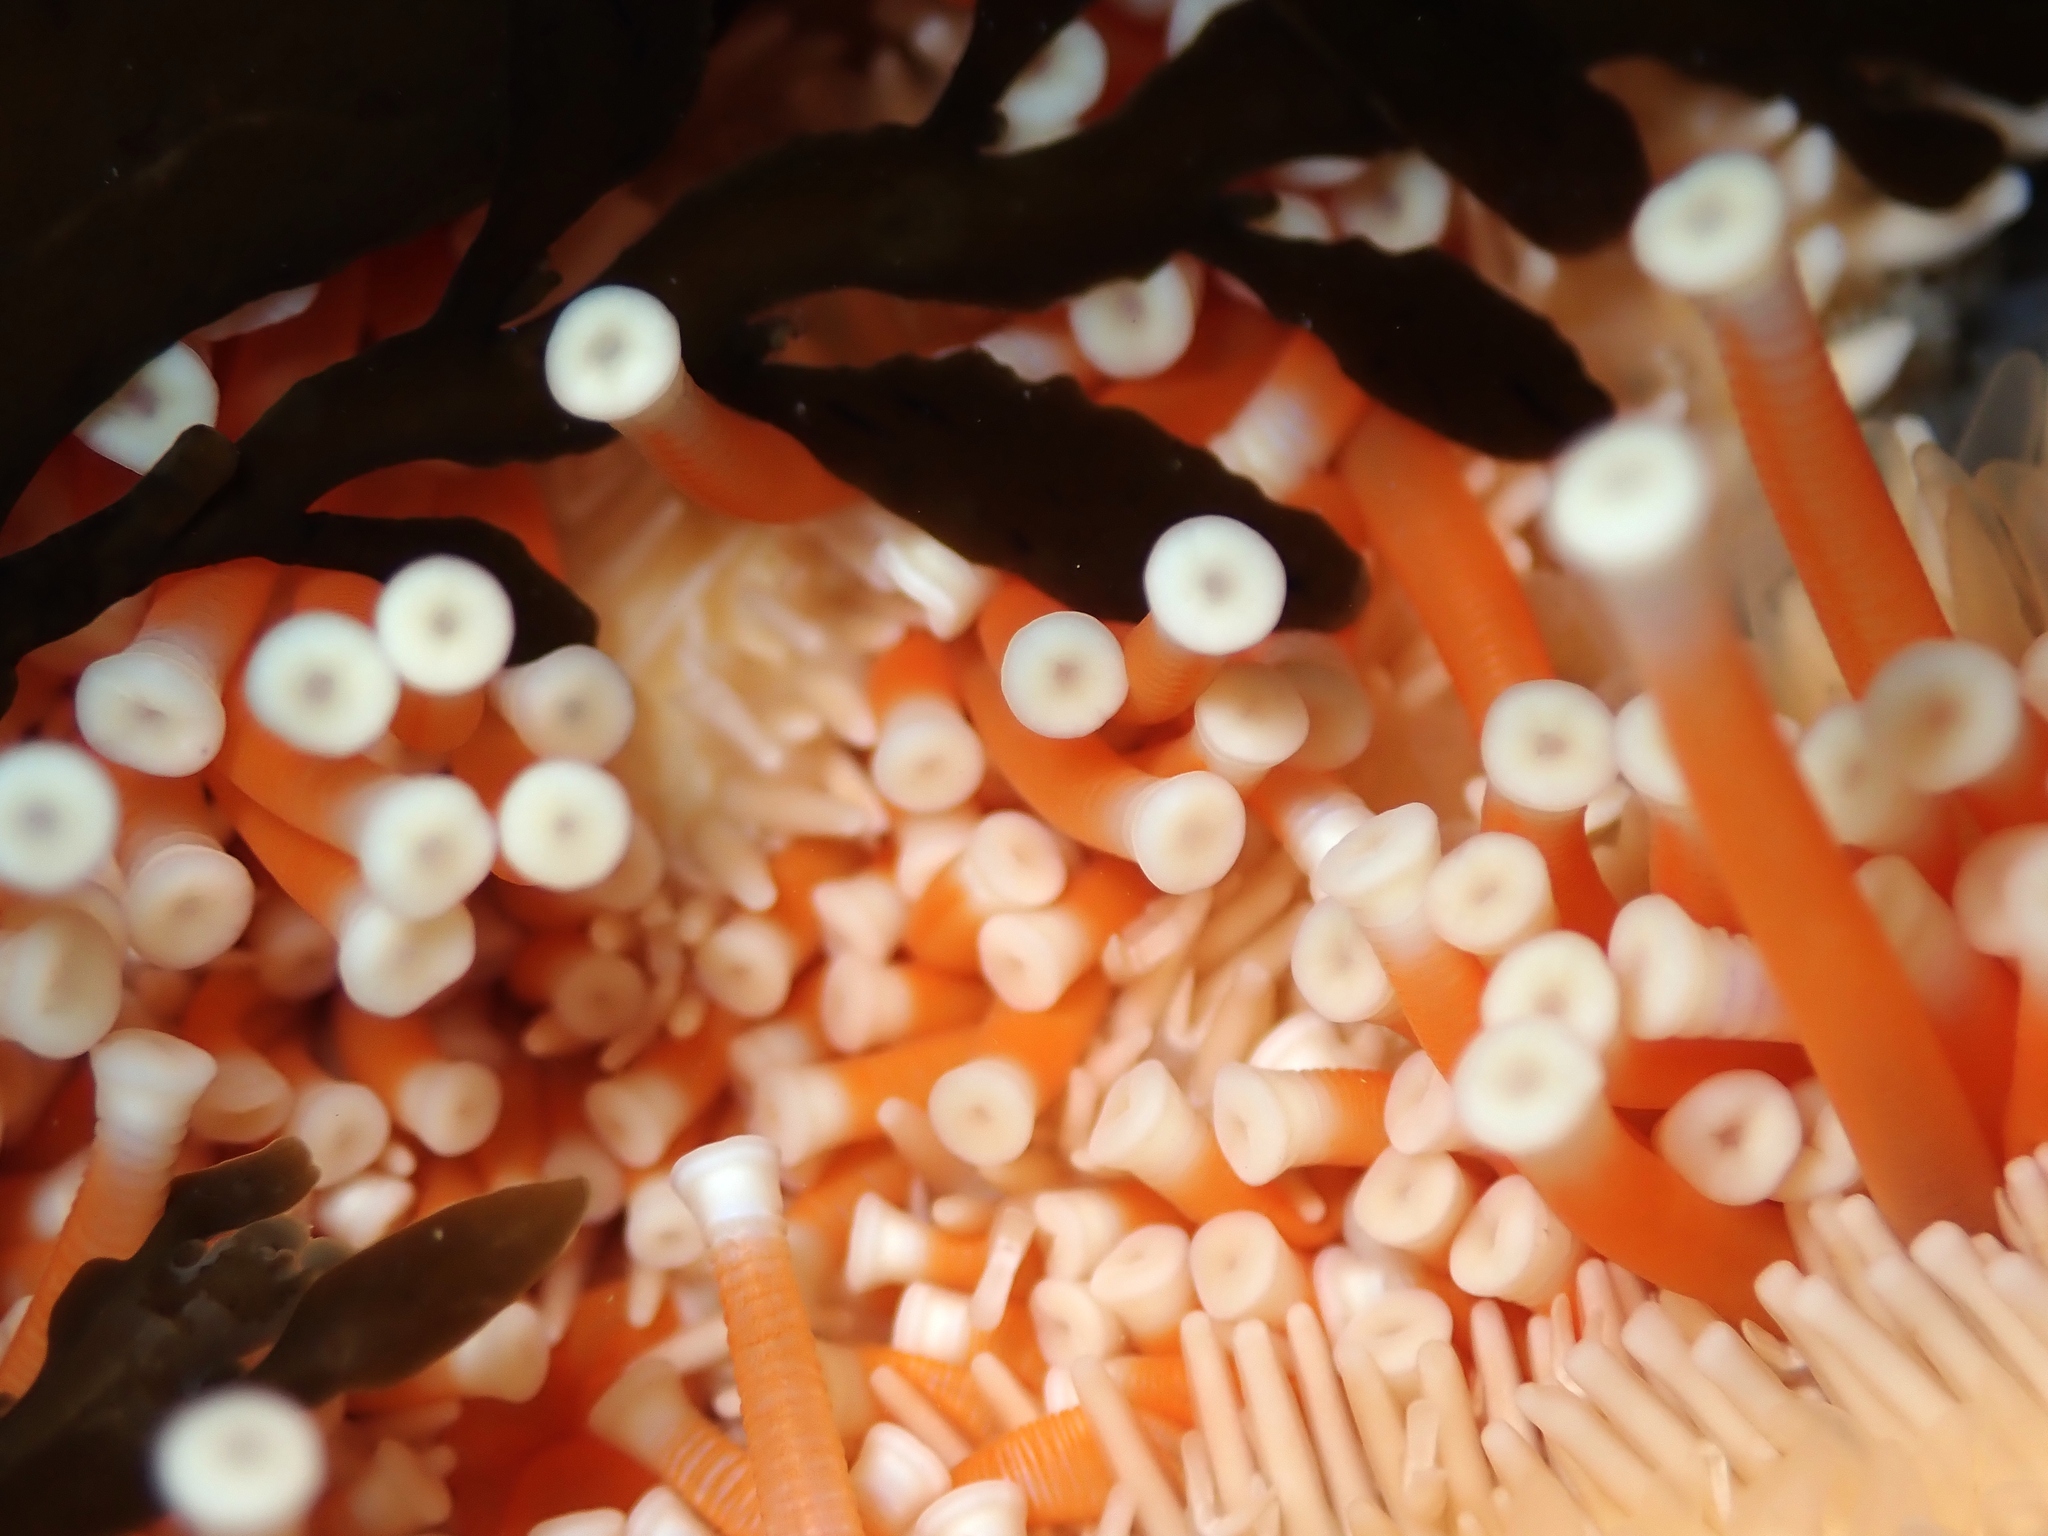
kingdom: Animalia
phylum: Echinodermata
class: Asteroidea
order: Forcipulatida
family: Asteriidae
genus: Astrostole
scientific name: Astrostole scabra
